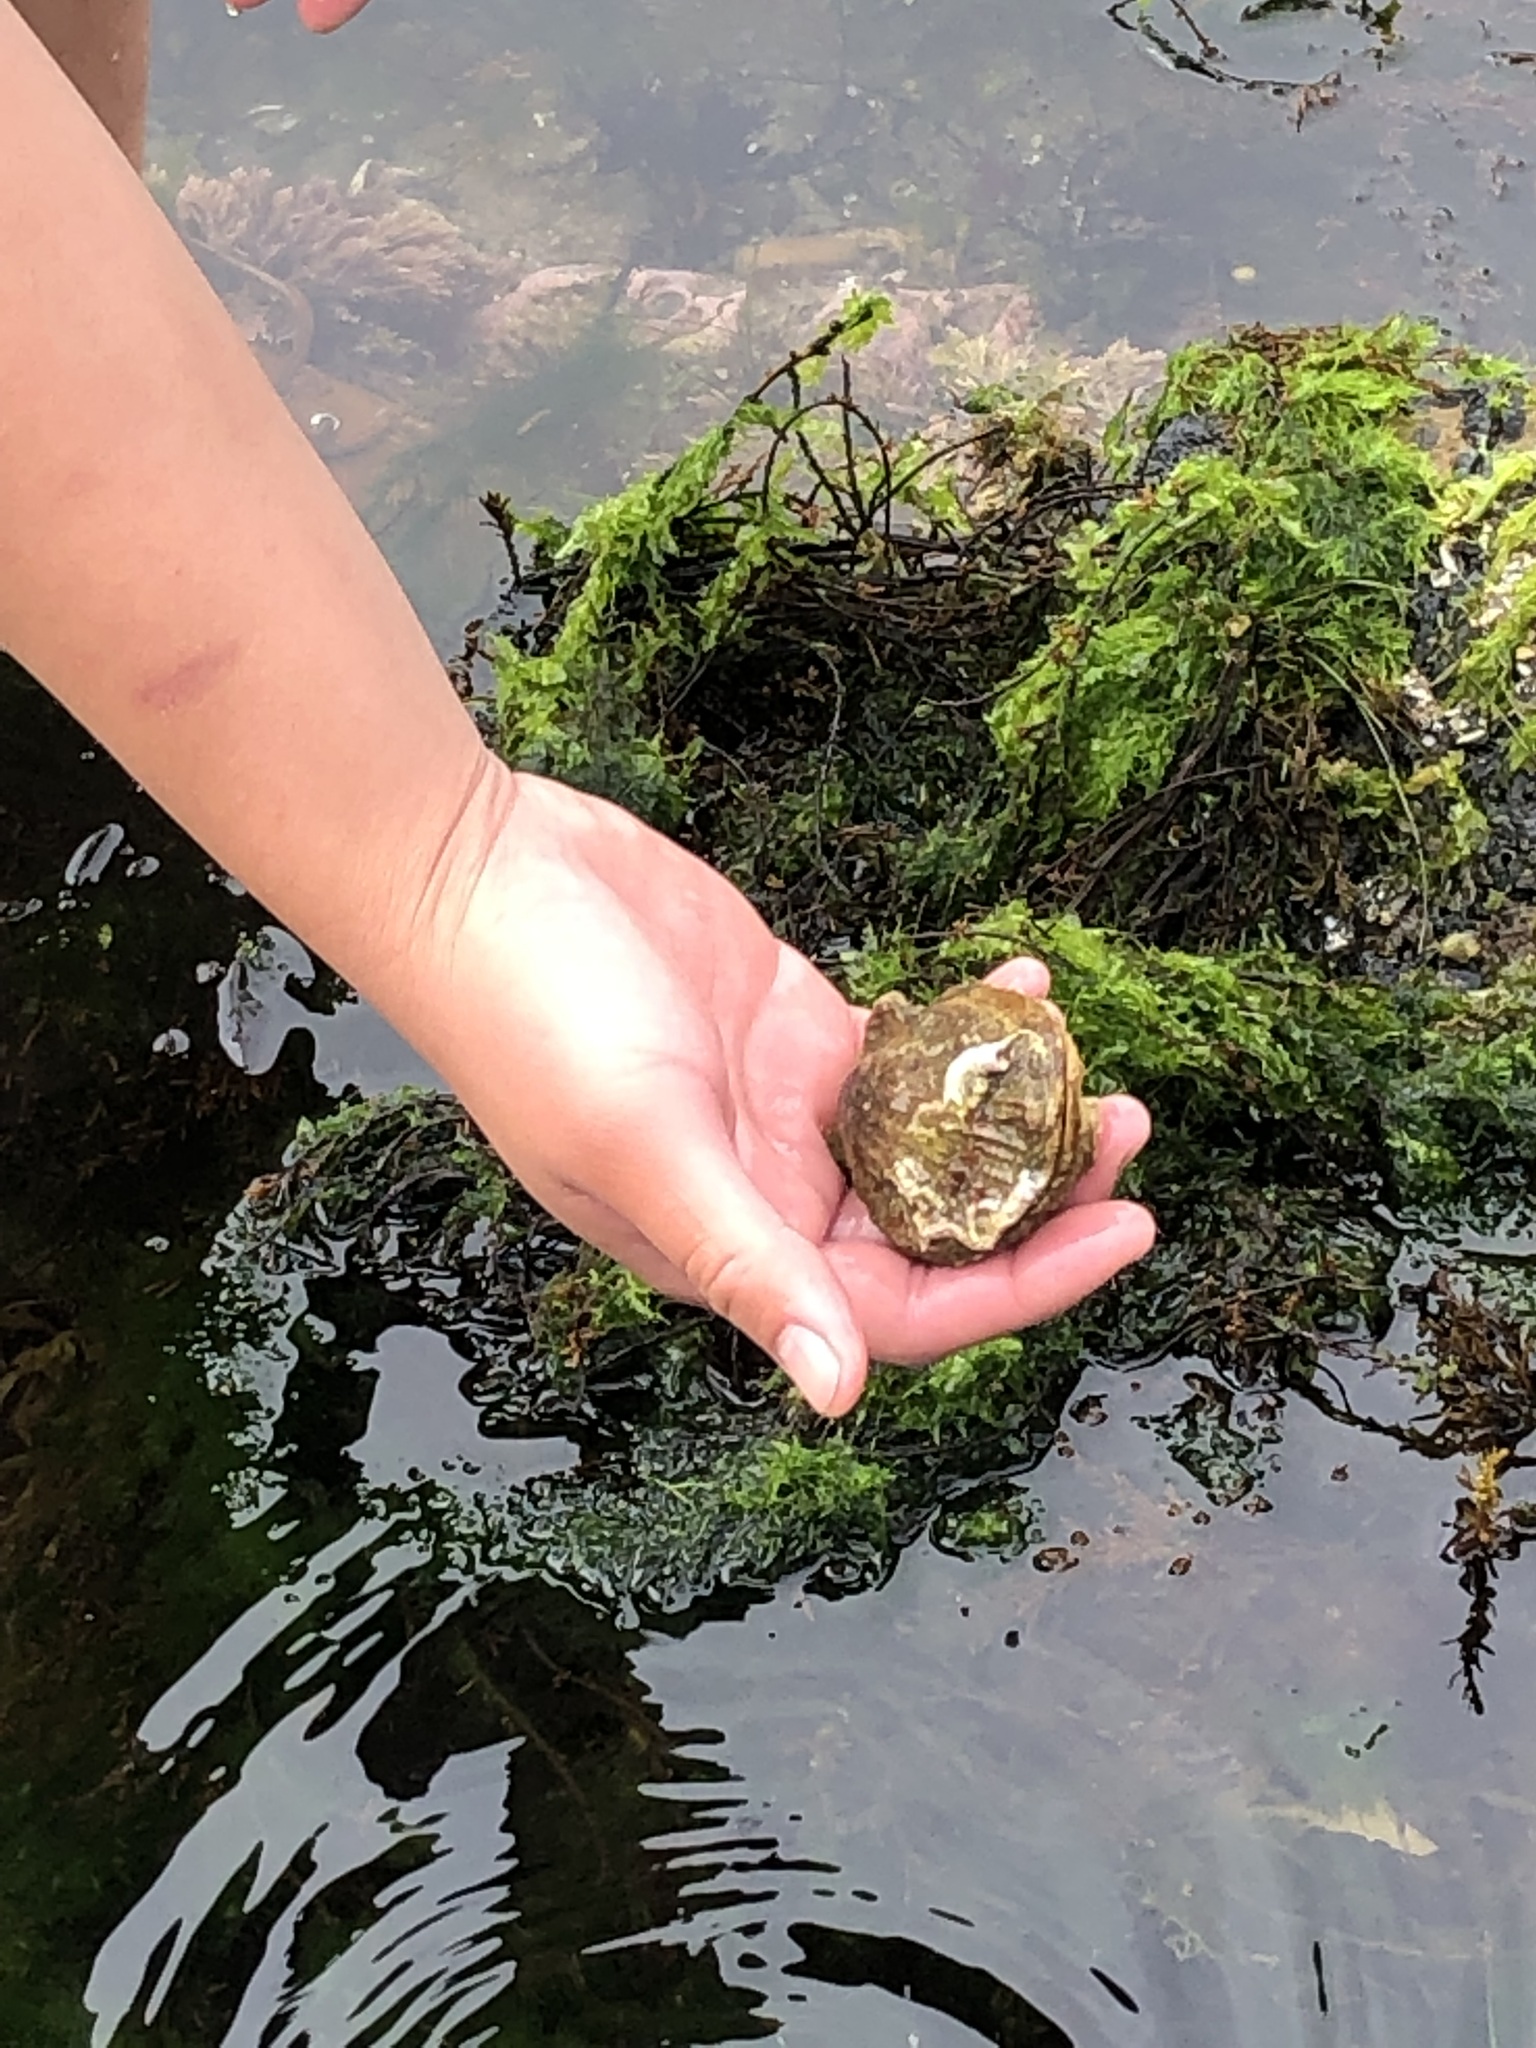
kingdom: Animalia
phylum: Mollusca
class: Bivalvia
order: Pectinida
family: Pectinidae
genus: Crassadoma
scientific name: Crassadoma gigantea
